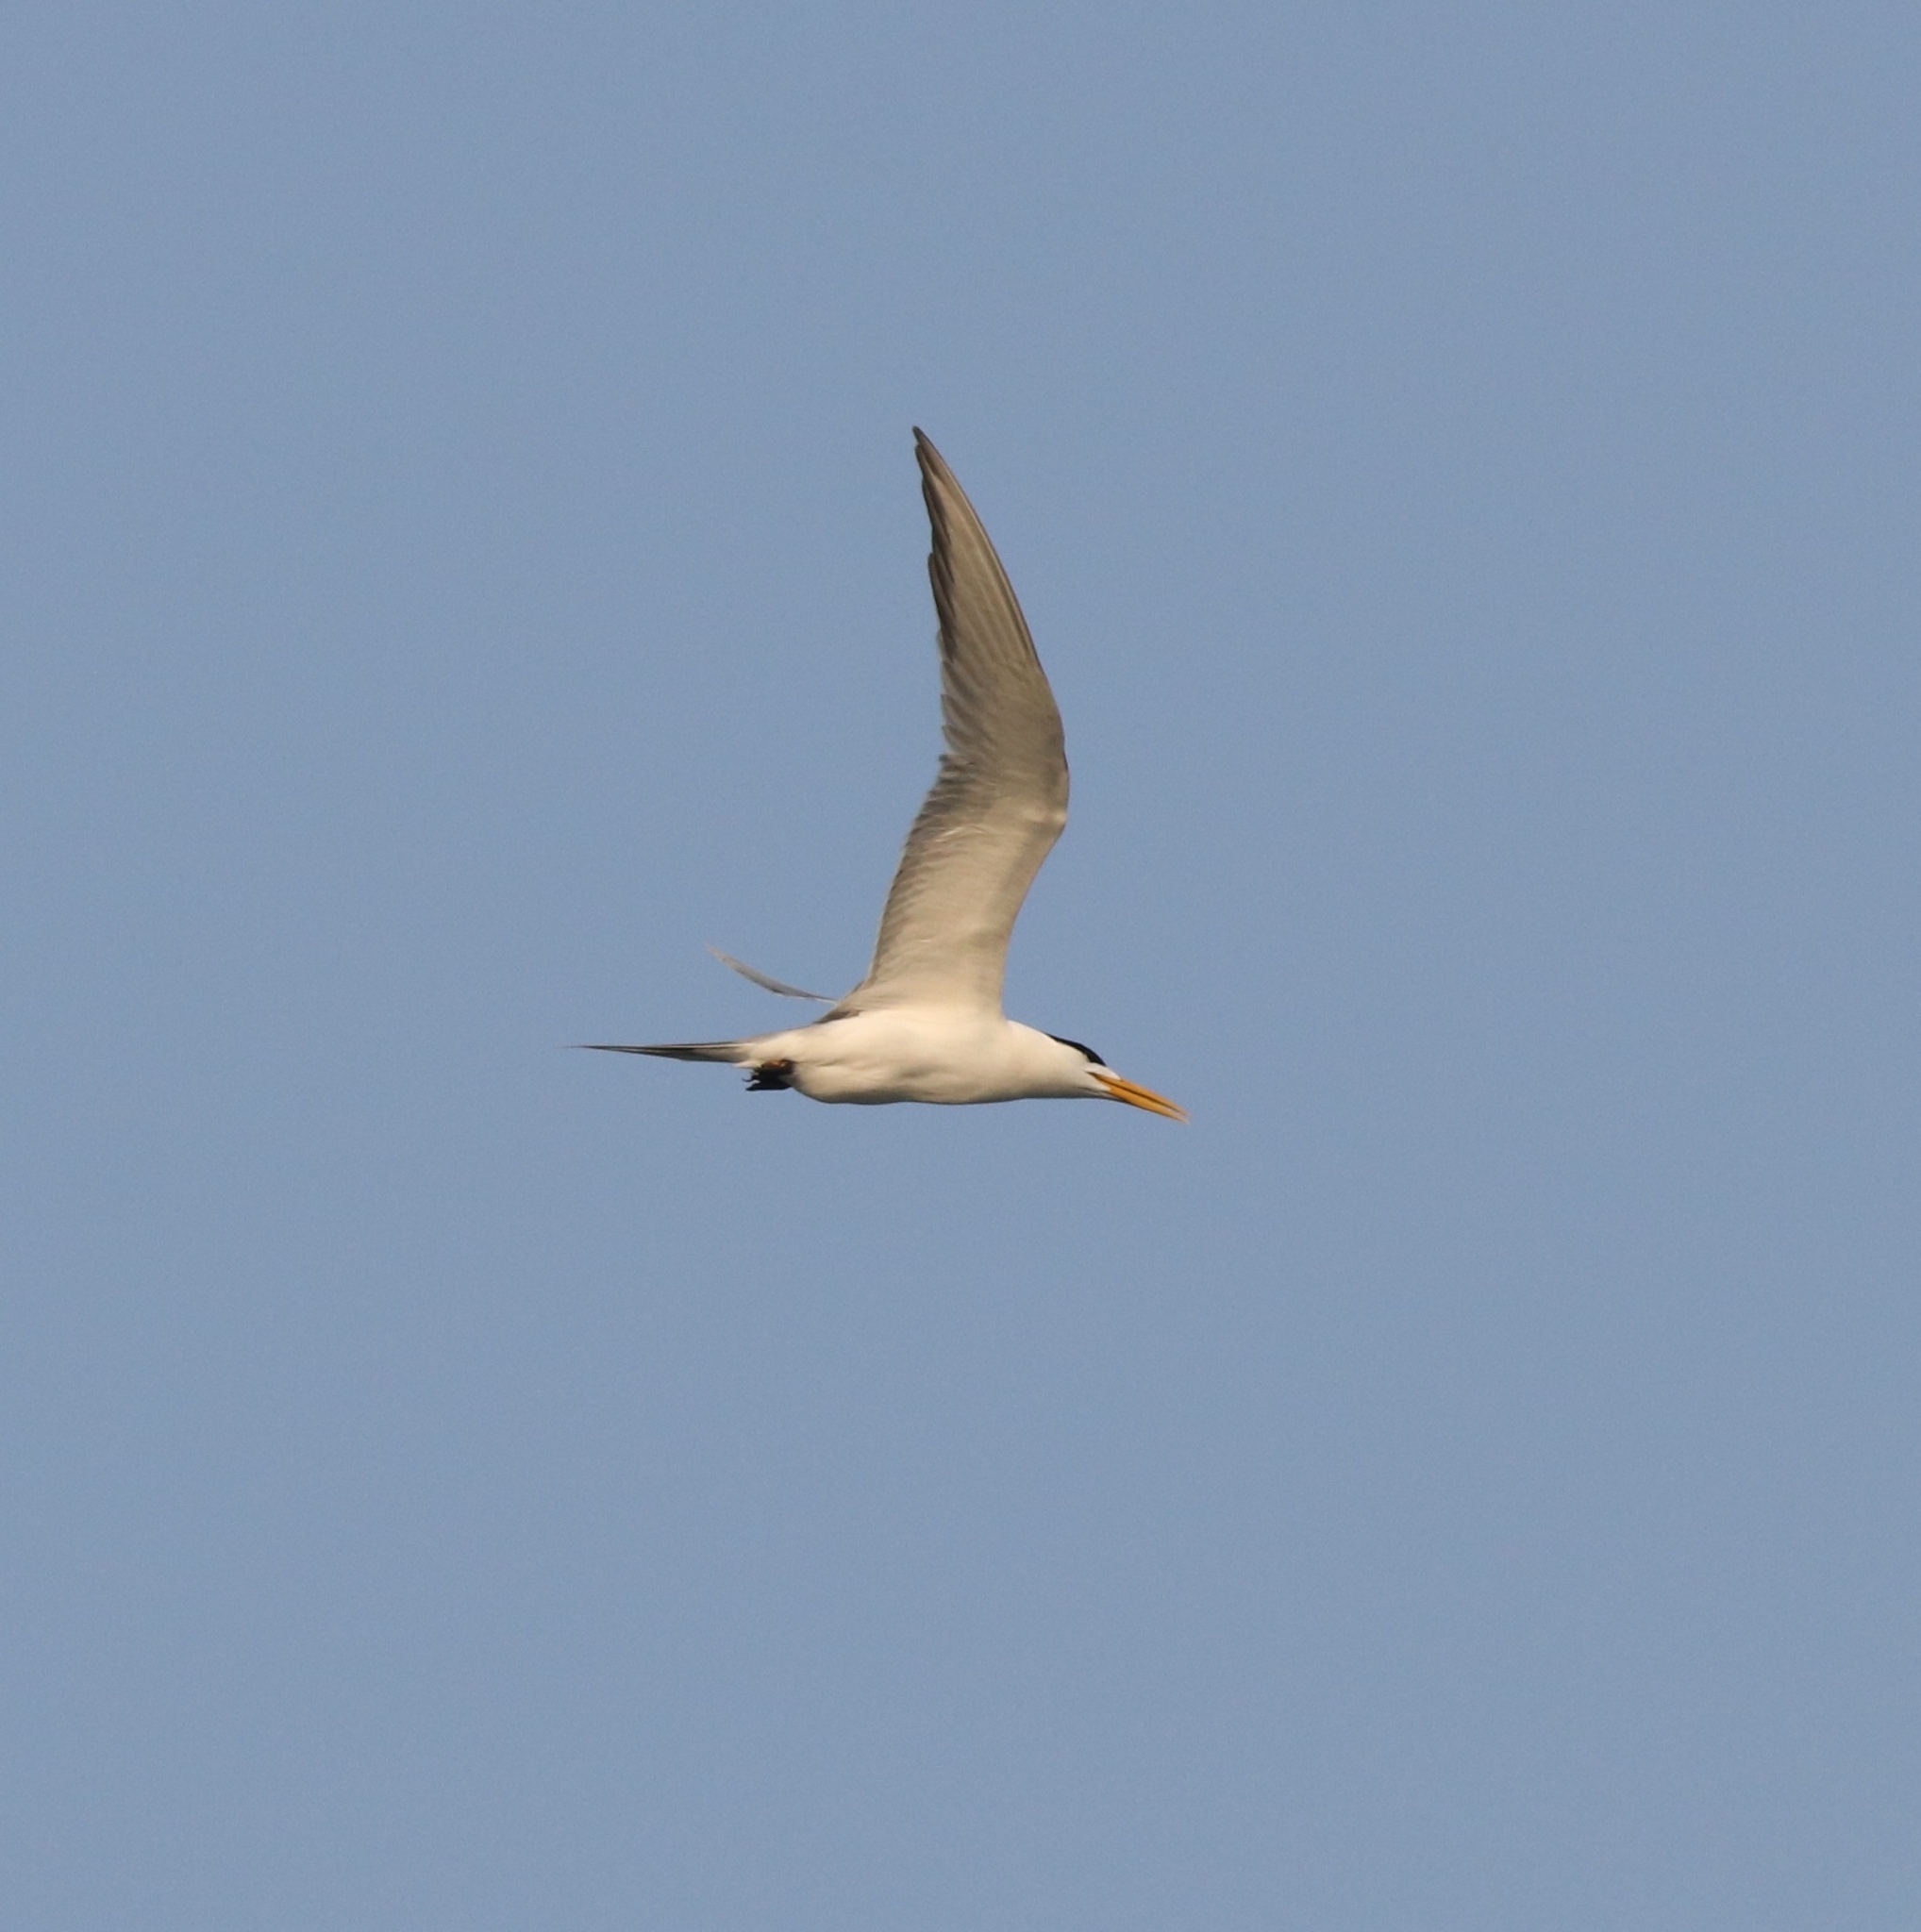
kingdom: Animalia
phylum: Chordata
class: Aves
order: Charadriiformes
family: Laridae
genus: Thalasseus
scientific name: Thalasseus bergii
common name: Greater crested tern
